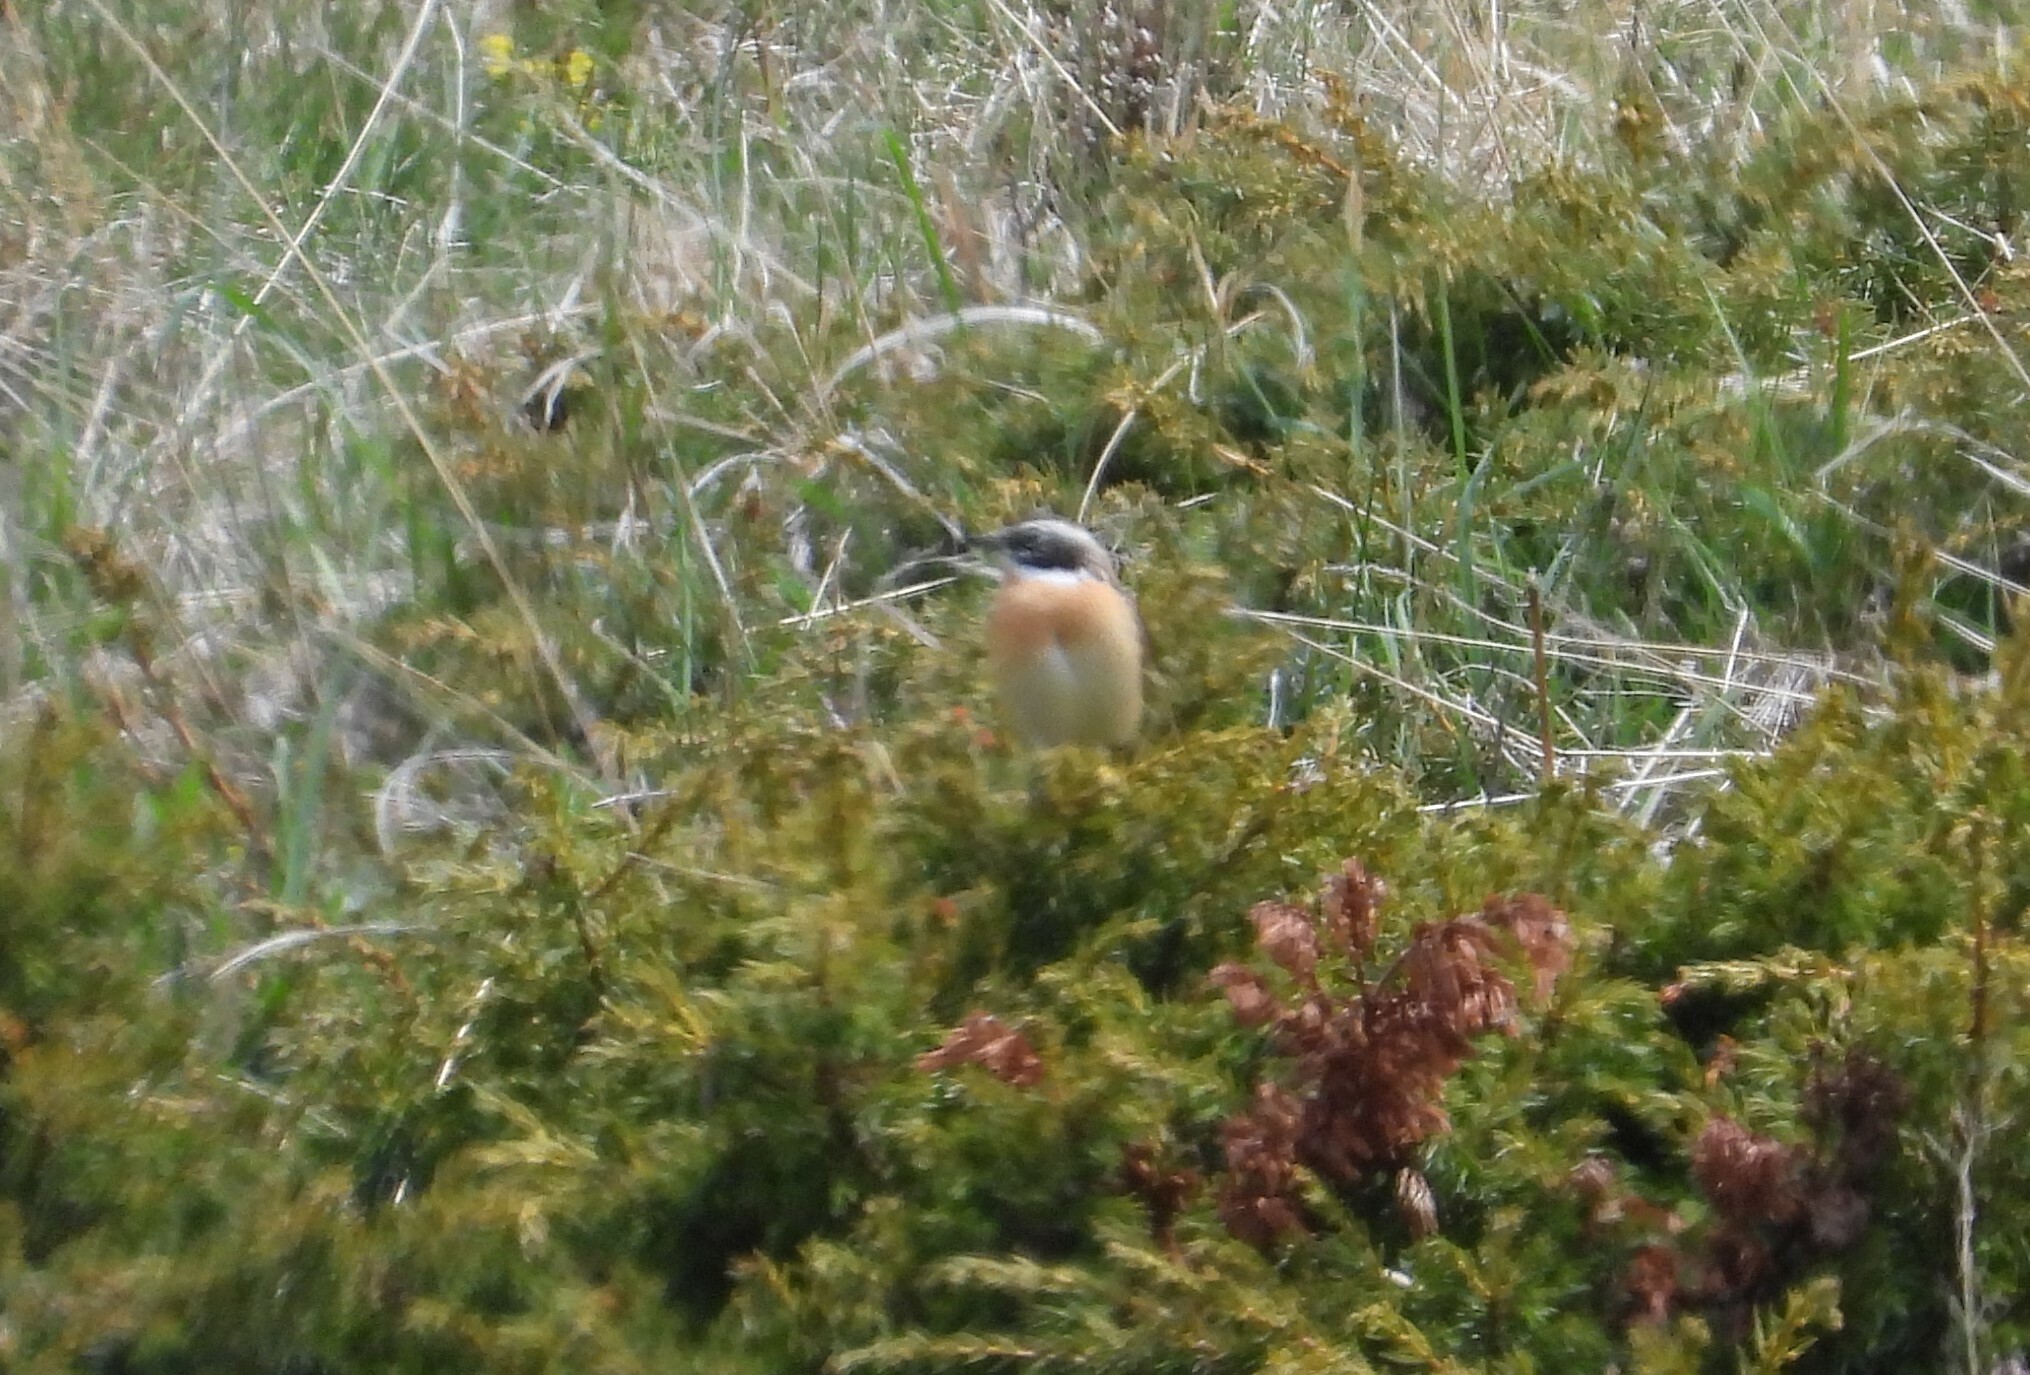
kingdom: Animalia
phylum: Chordata
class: Aves
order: Passeriformes
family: Muscicapidae
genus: Saxicola
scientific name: Saxicola rubetra
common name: Whinchat
